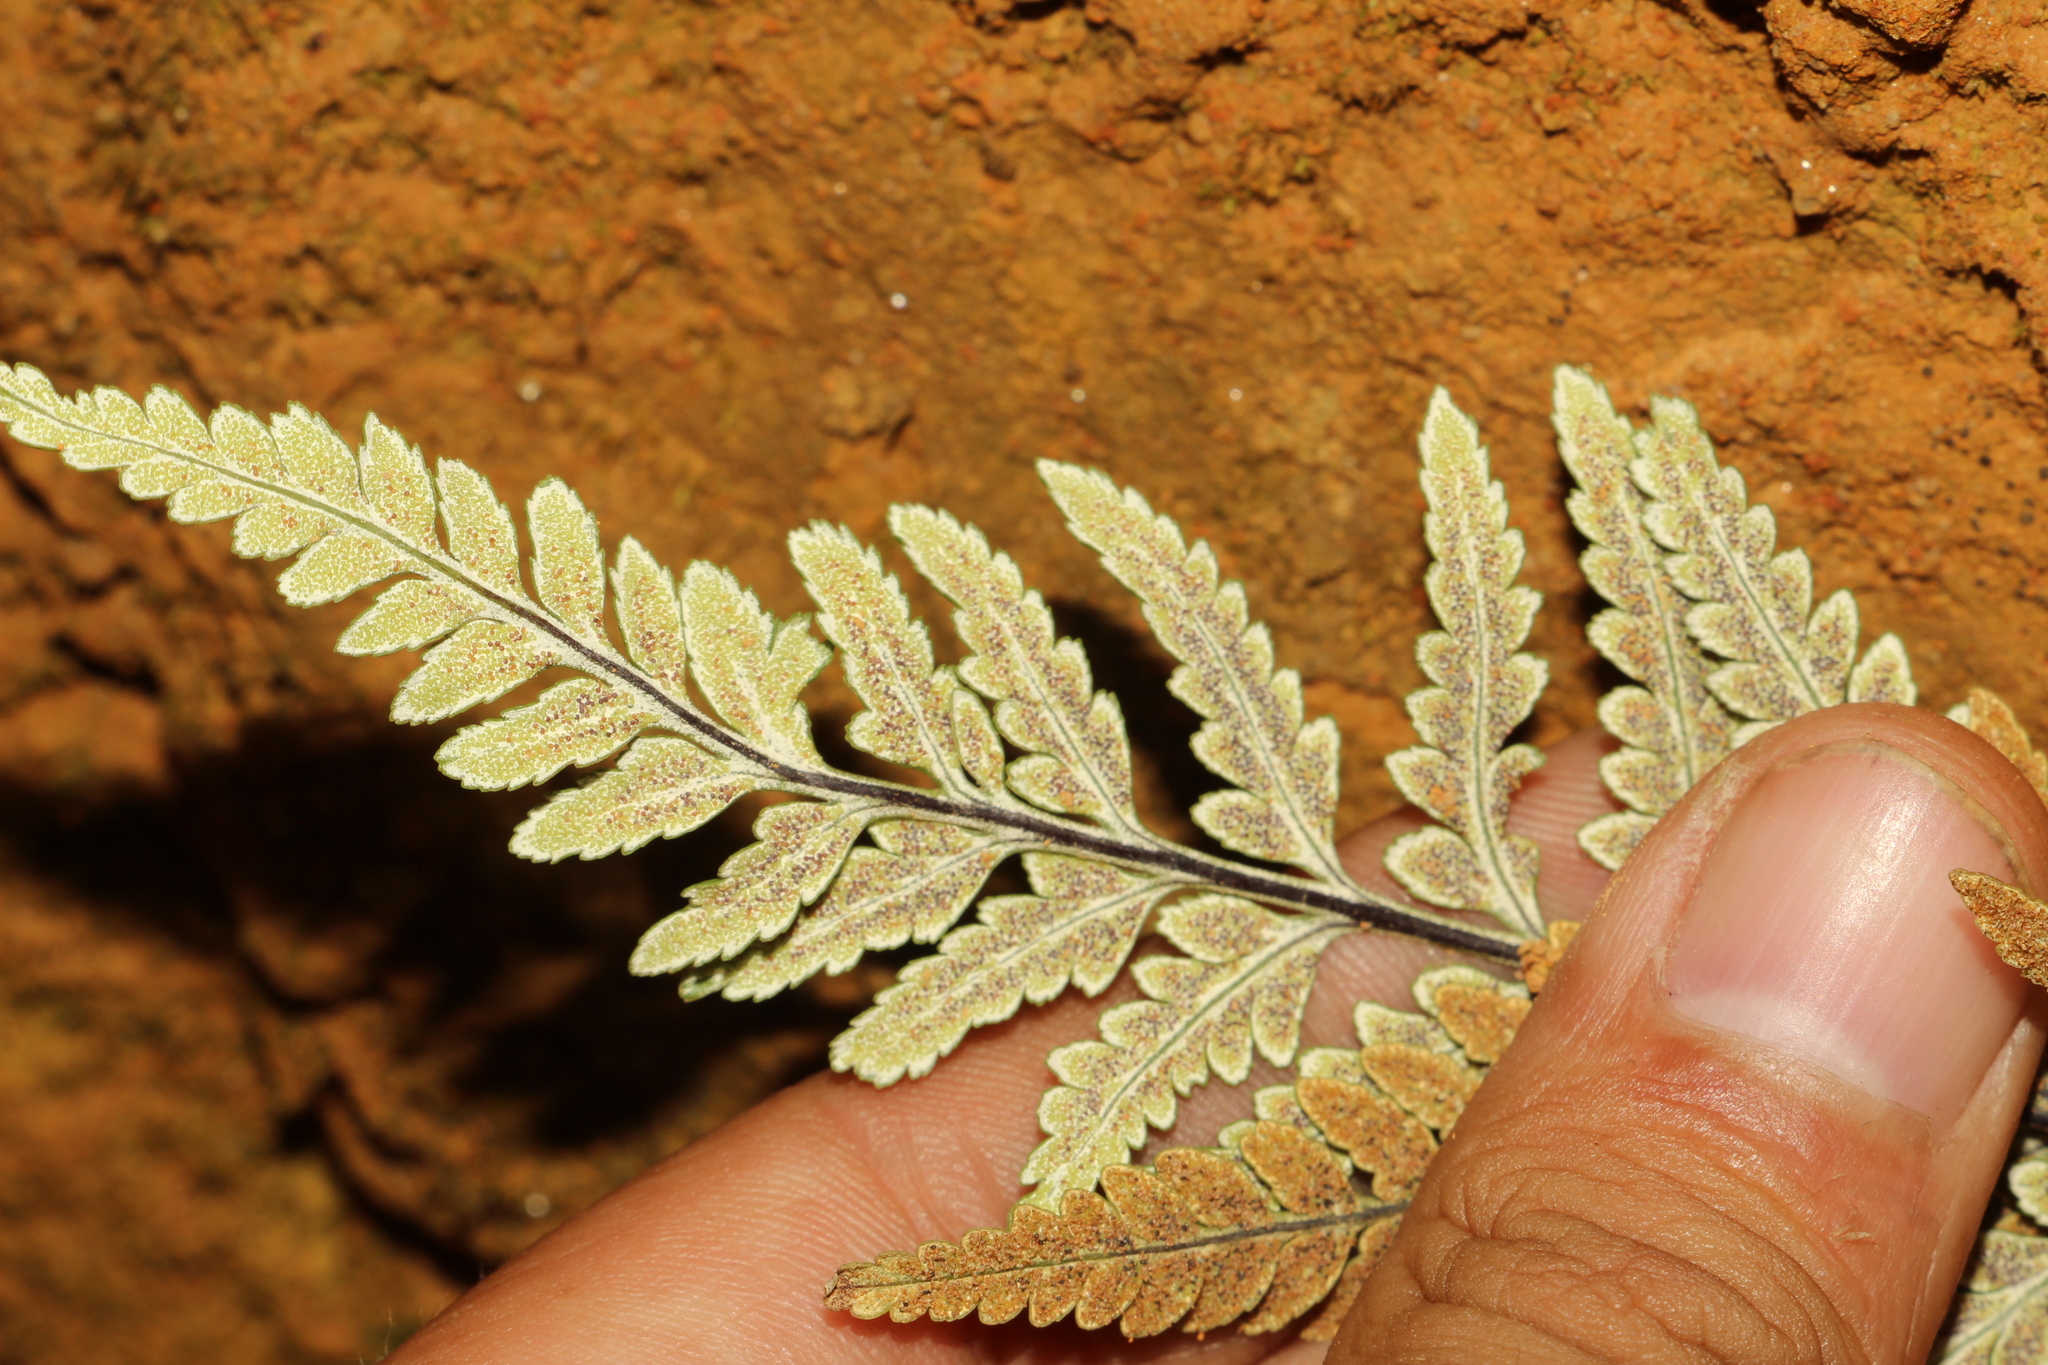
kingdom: Plantae
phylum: Tracheophyta
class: Polypodiopsida
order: Polypodiales
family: Pteridaceae
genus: Pityrogramma
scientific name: Pityrogramma calomelanos
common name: Dixie silverback fern
